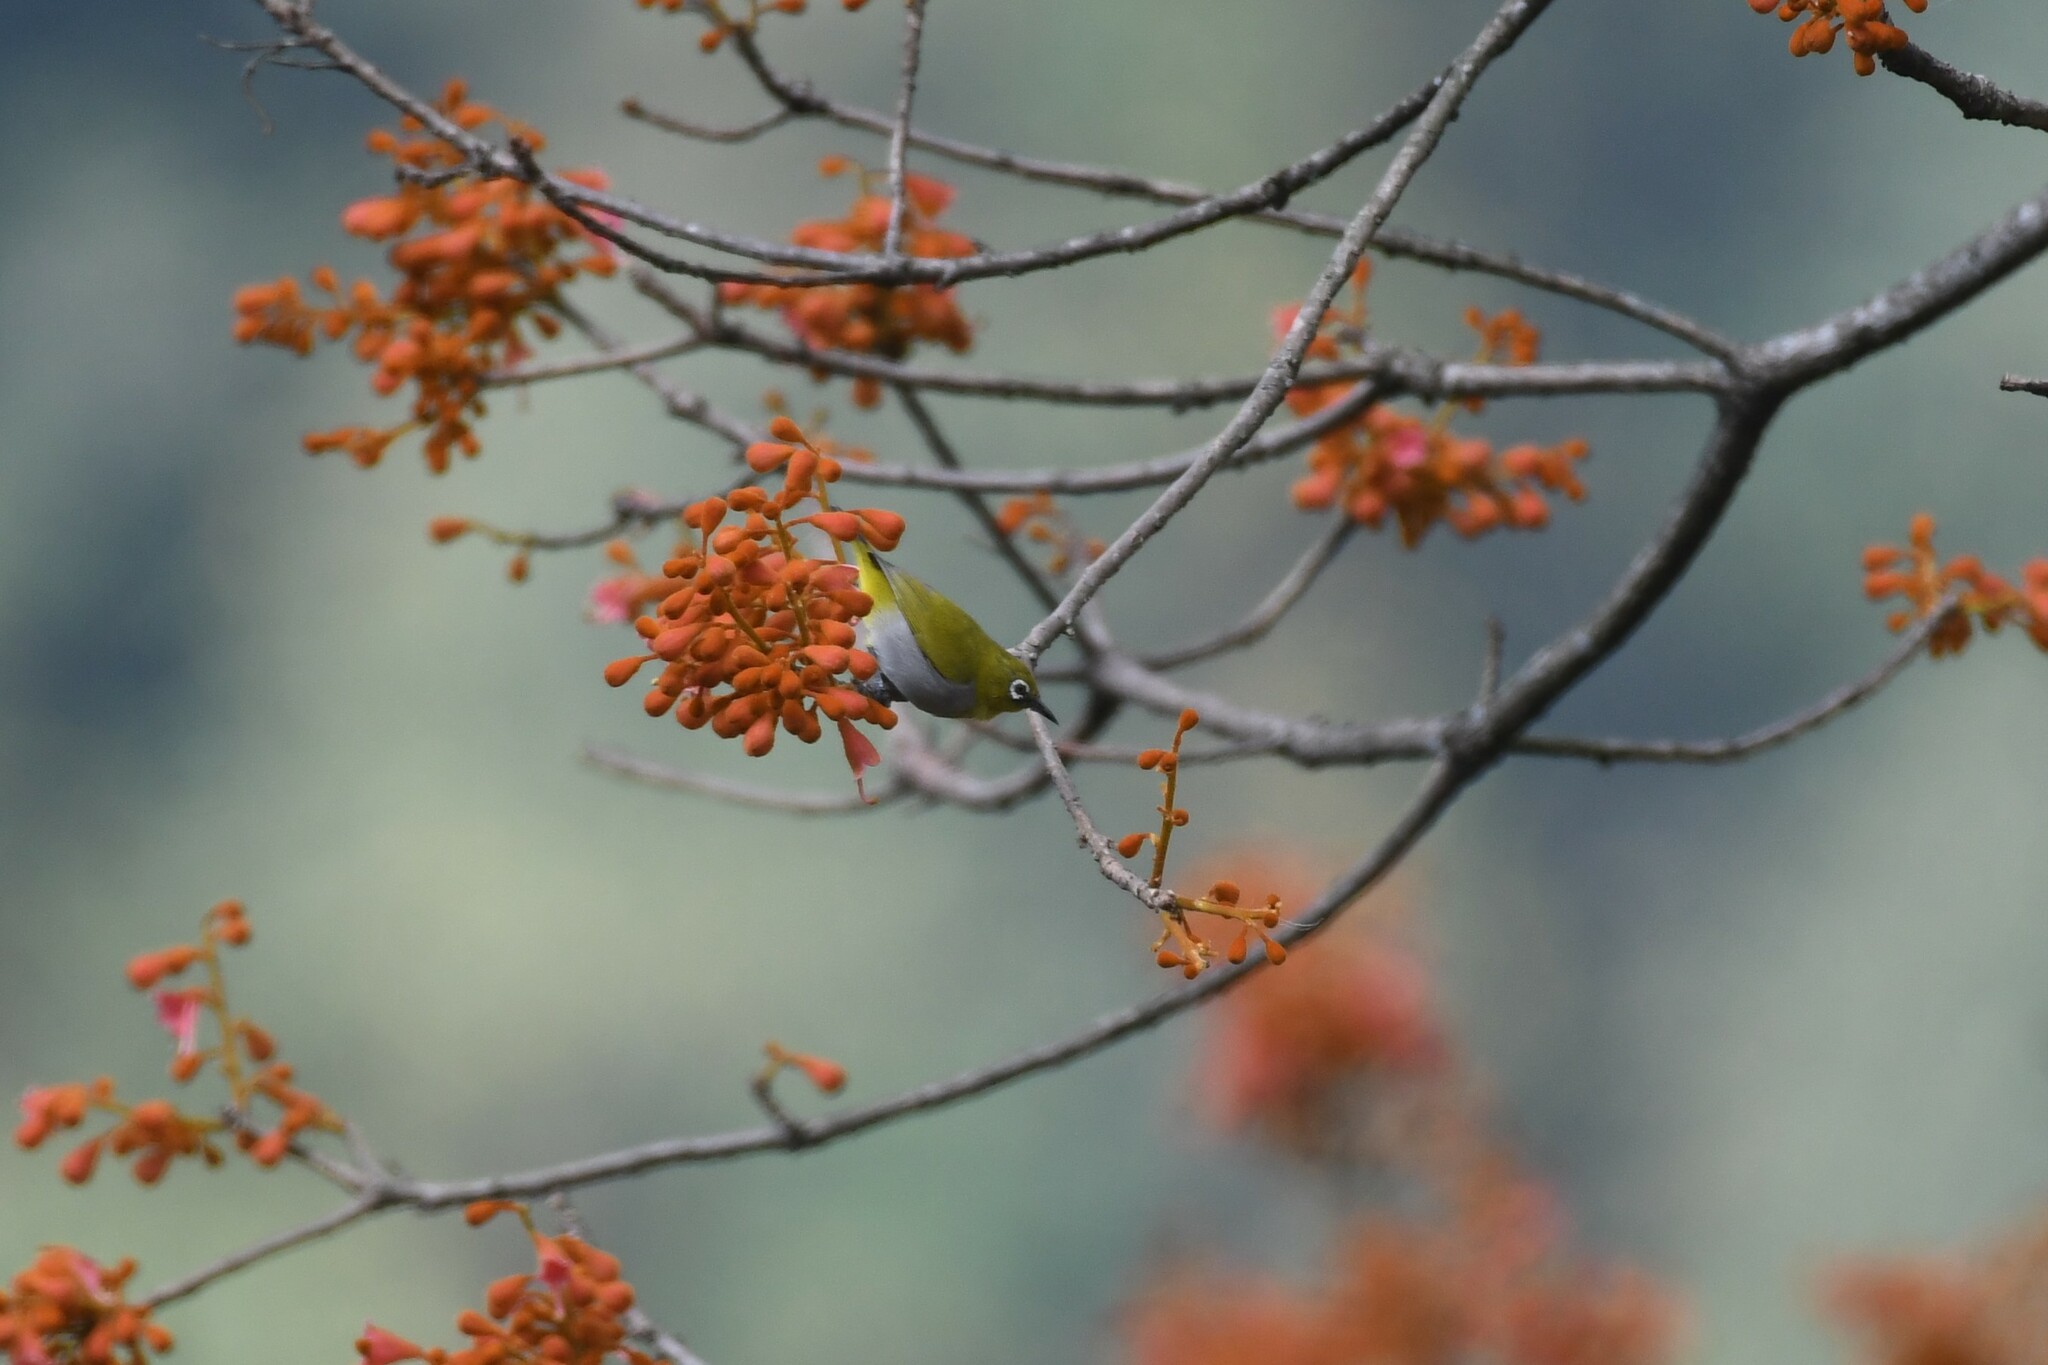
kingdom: Animalia
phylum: Chordata
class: Aves
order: Passeriformes
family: Zosteropidae
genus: Zosterops
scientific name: Zosterops palpebrosus
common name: Oriental white-eye
